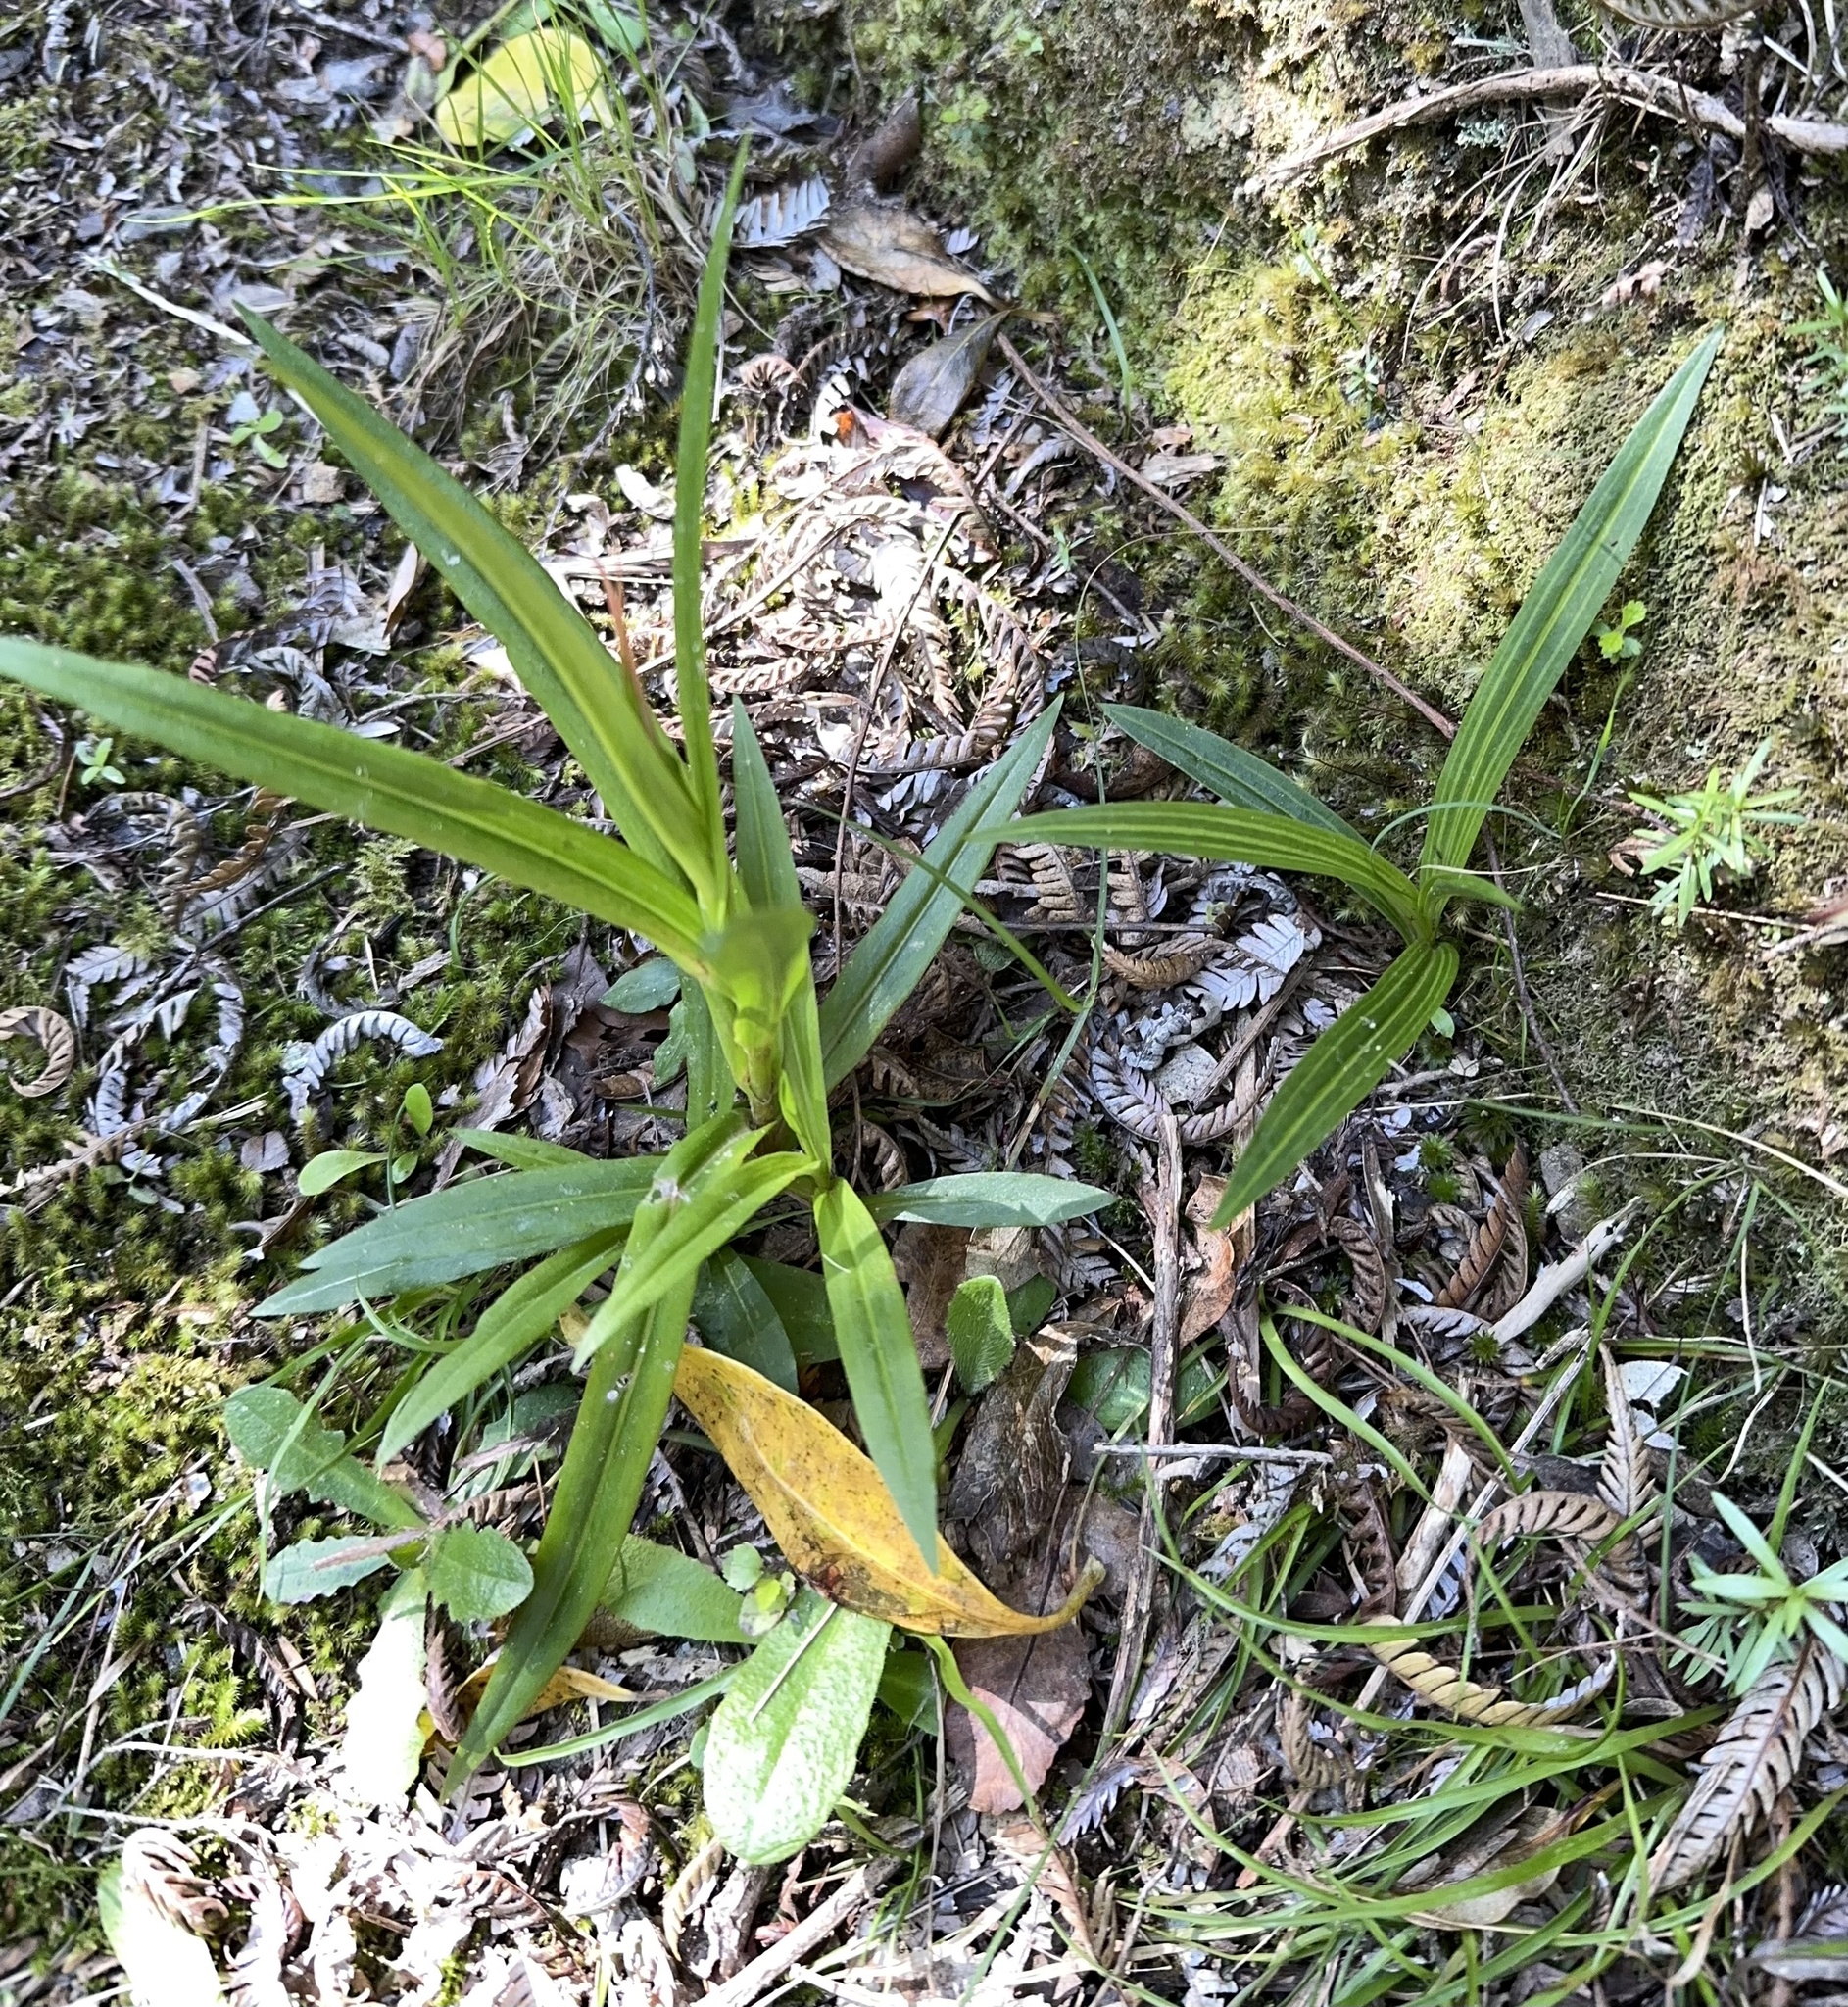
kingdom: Plantae
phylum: Tracheophyta
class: Liliopsida
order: Asparagales
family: Orchidaceae
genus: Pterostylis
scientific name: Pterostylis banksii
